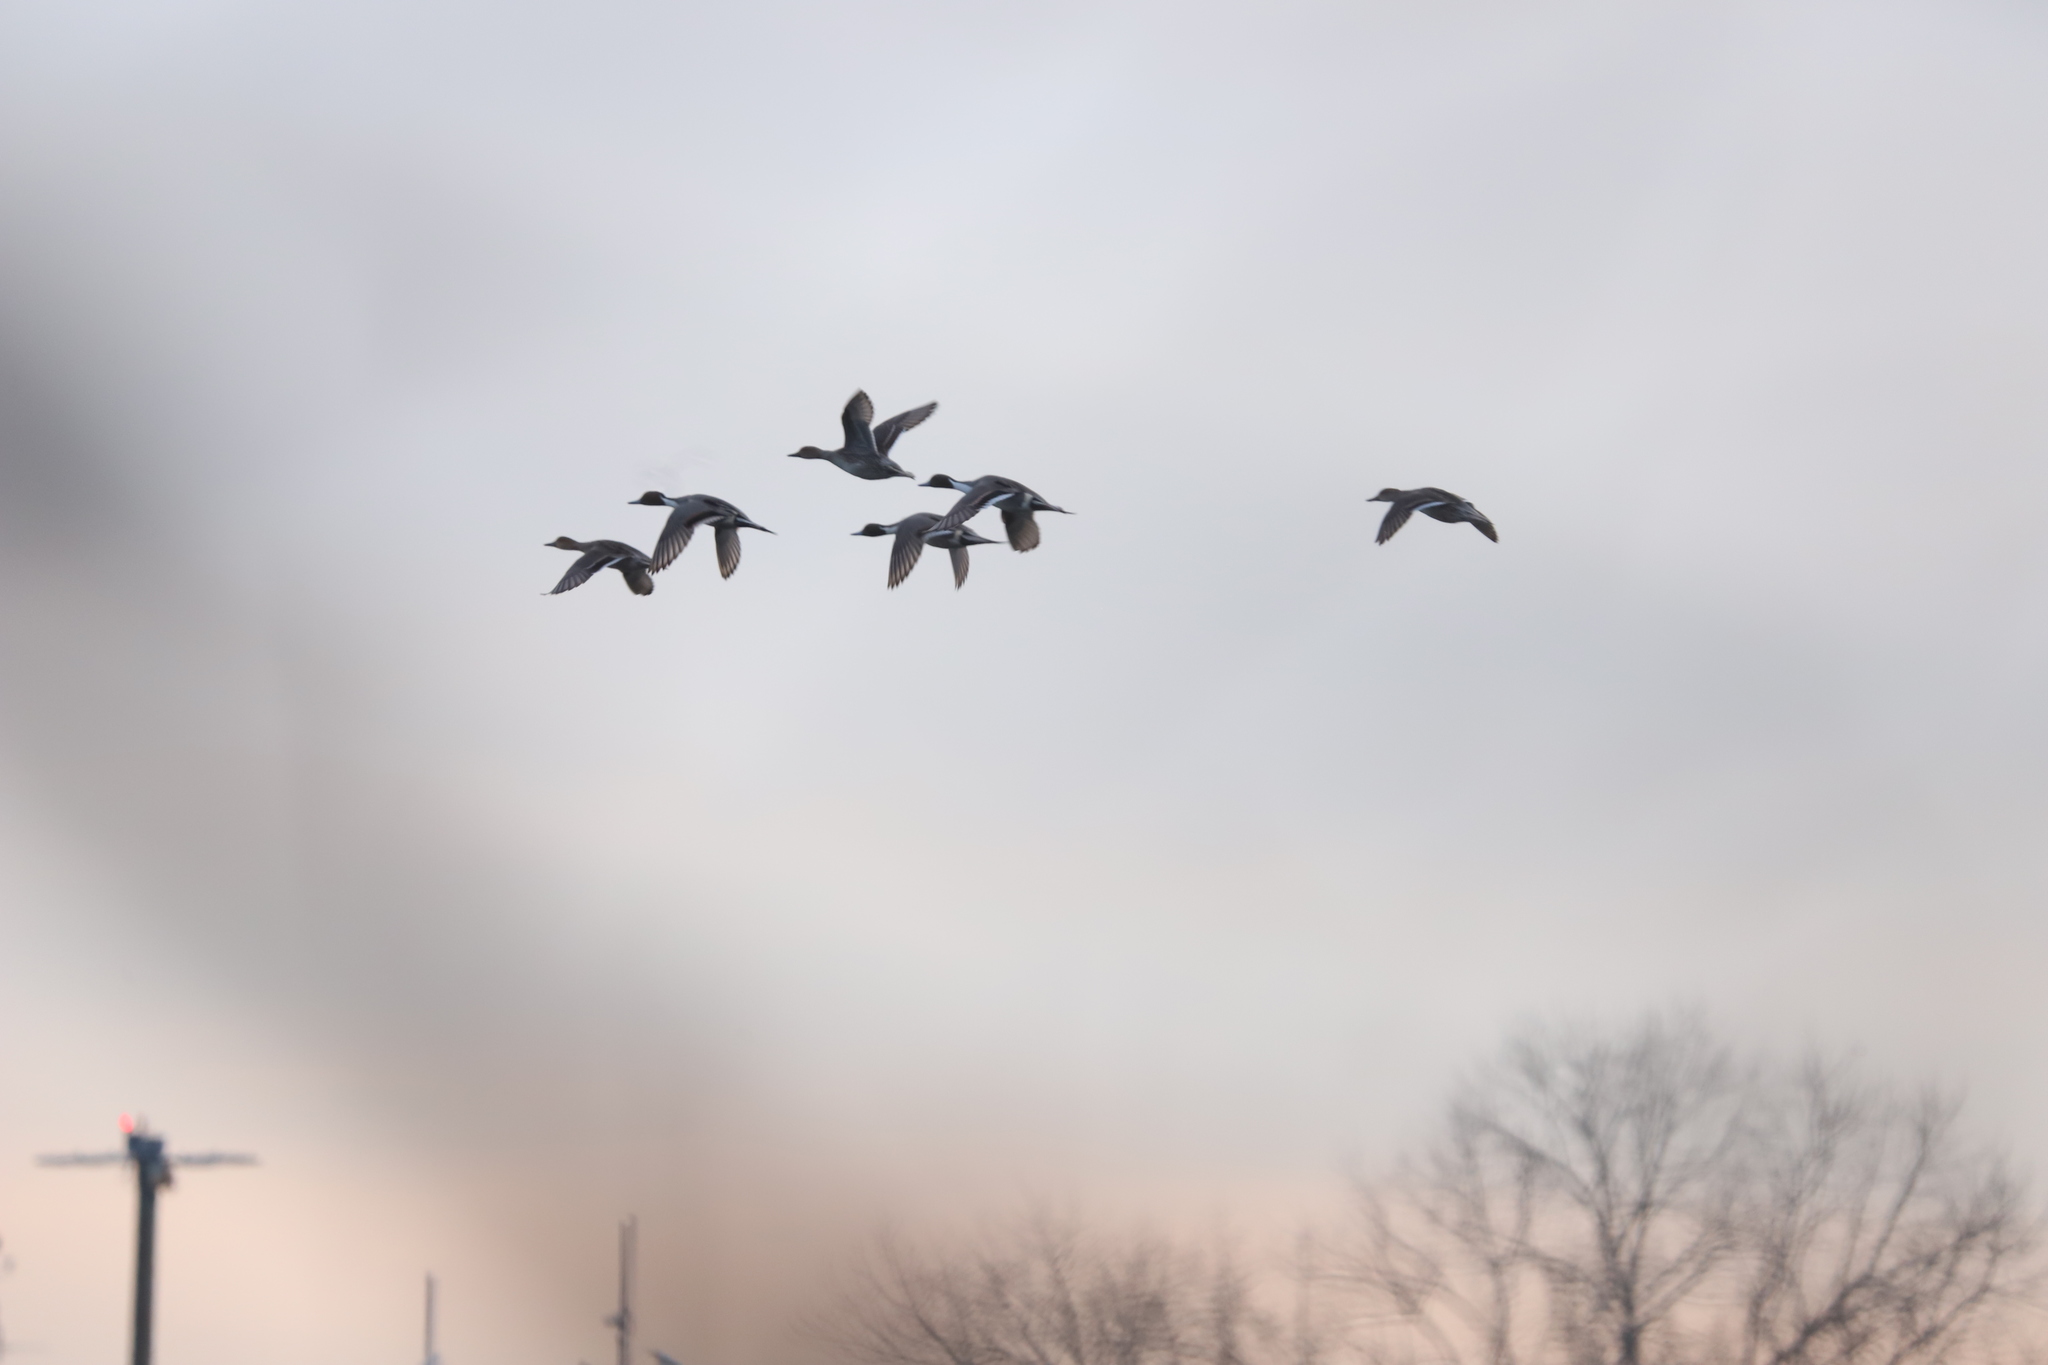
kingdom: Animalia
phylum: Chordata
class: Aves
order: Anseriformes
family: Anatidae
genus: Anas
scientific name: Anas acuta
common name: Northern pintail
